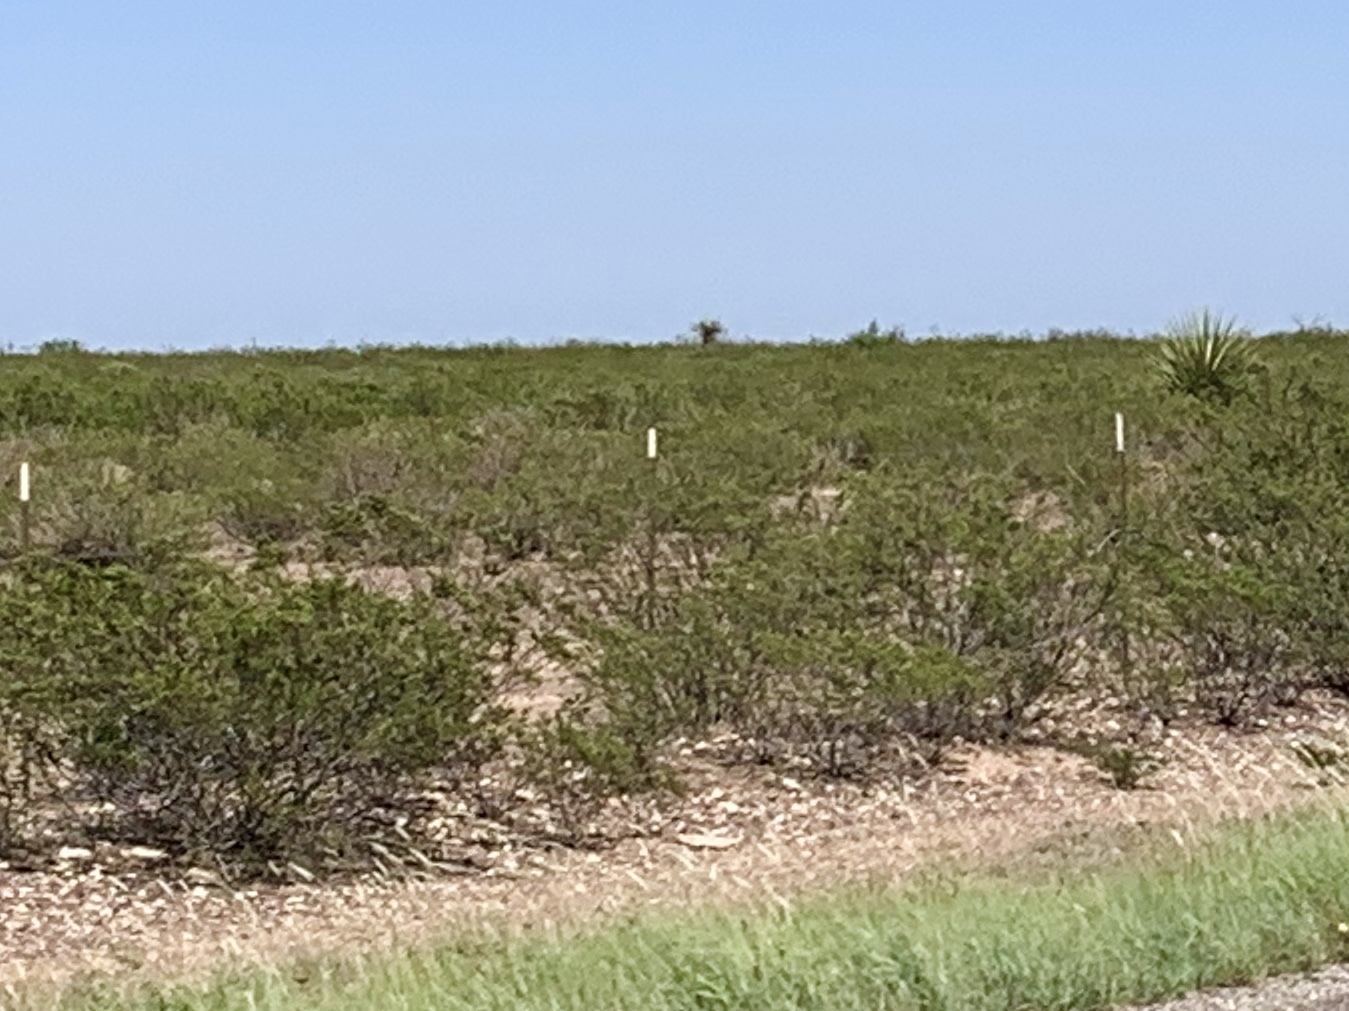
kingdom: Plantae
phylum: Tracheophyta
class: Magnoliopsida
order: Zygophyllales
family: Zygophyllaceae
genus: Larrea
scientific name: Larrea tridentata
